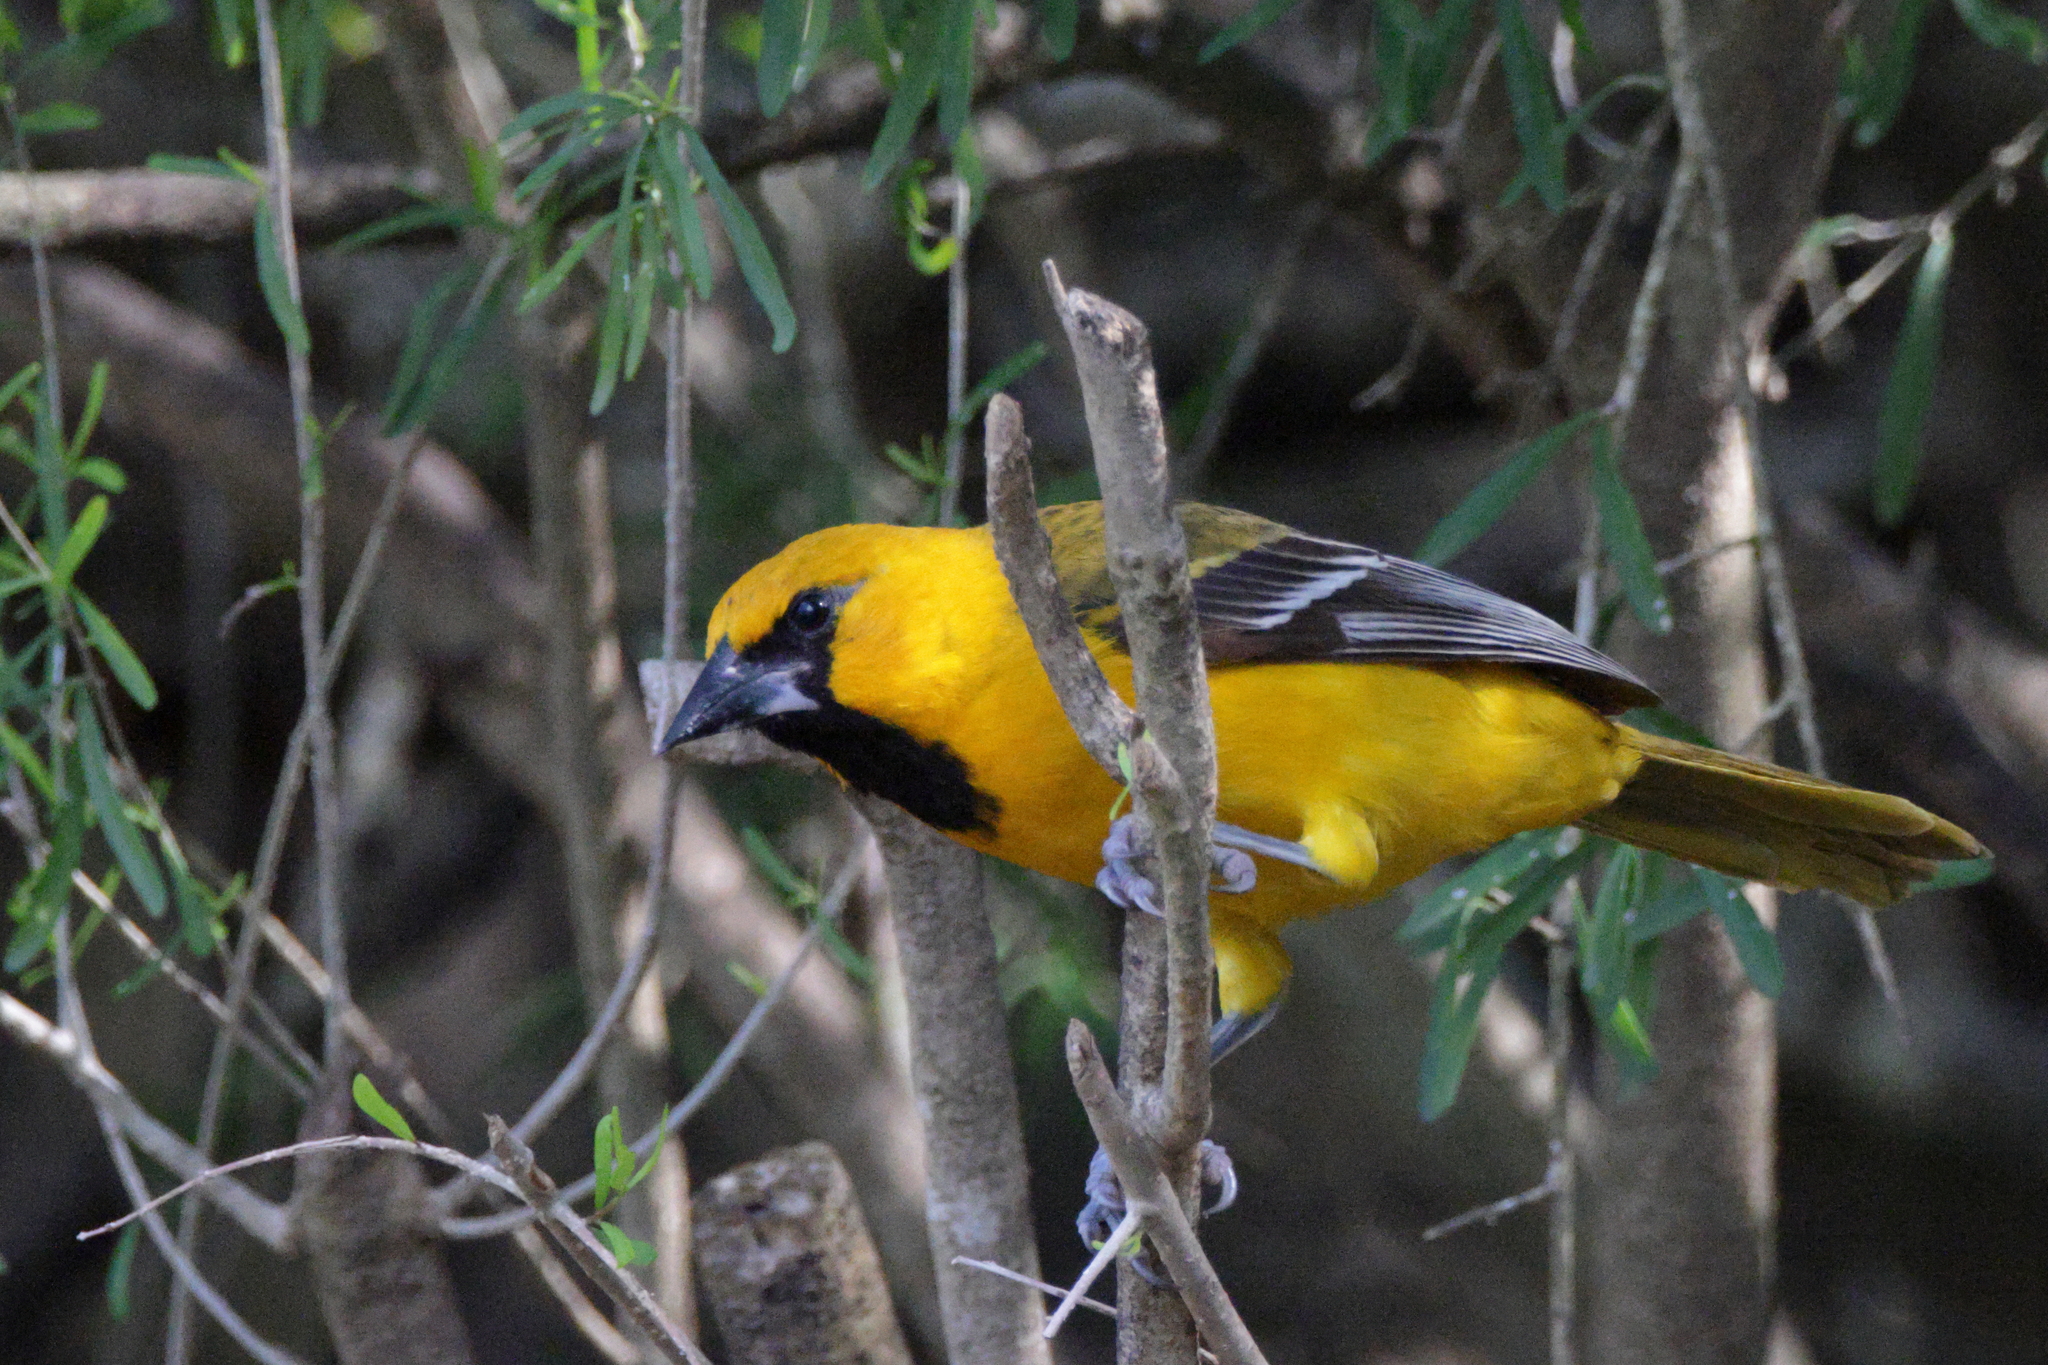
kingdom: Animalia
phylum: Chordata
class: Aves
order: Passeriformes
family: Icteridae
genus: Icterus
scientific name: Icterus gularis
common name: Altamira oriole
